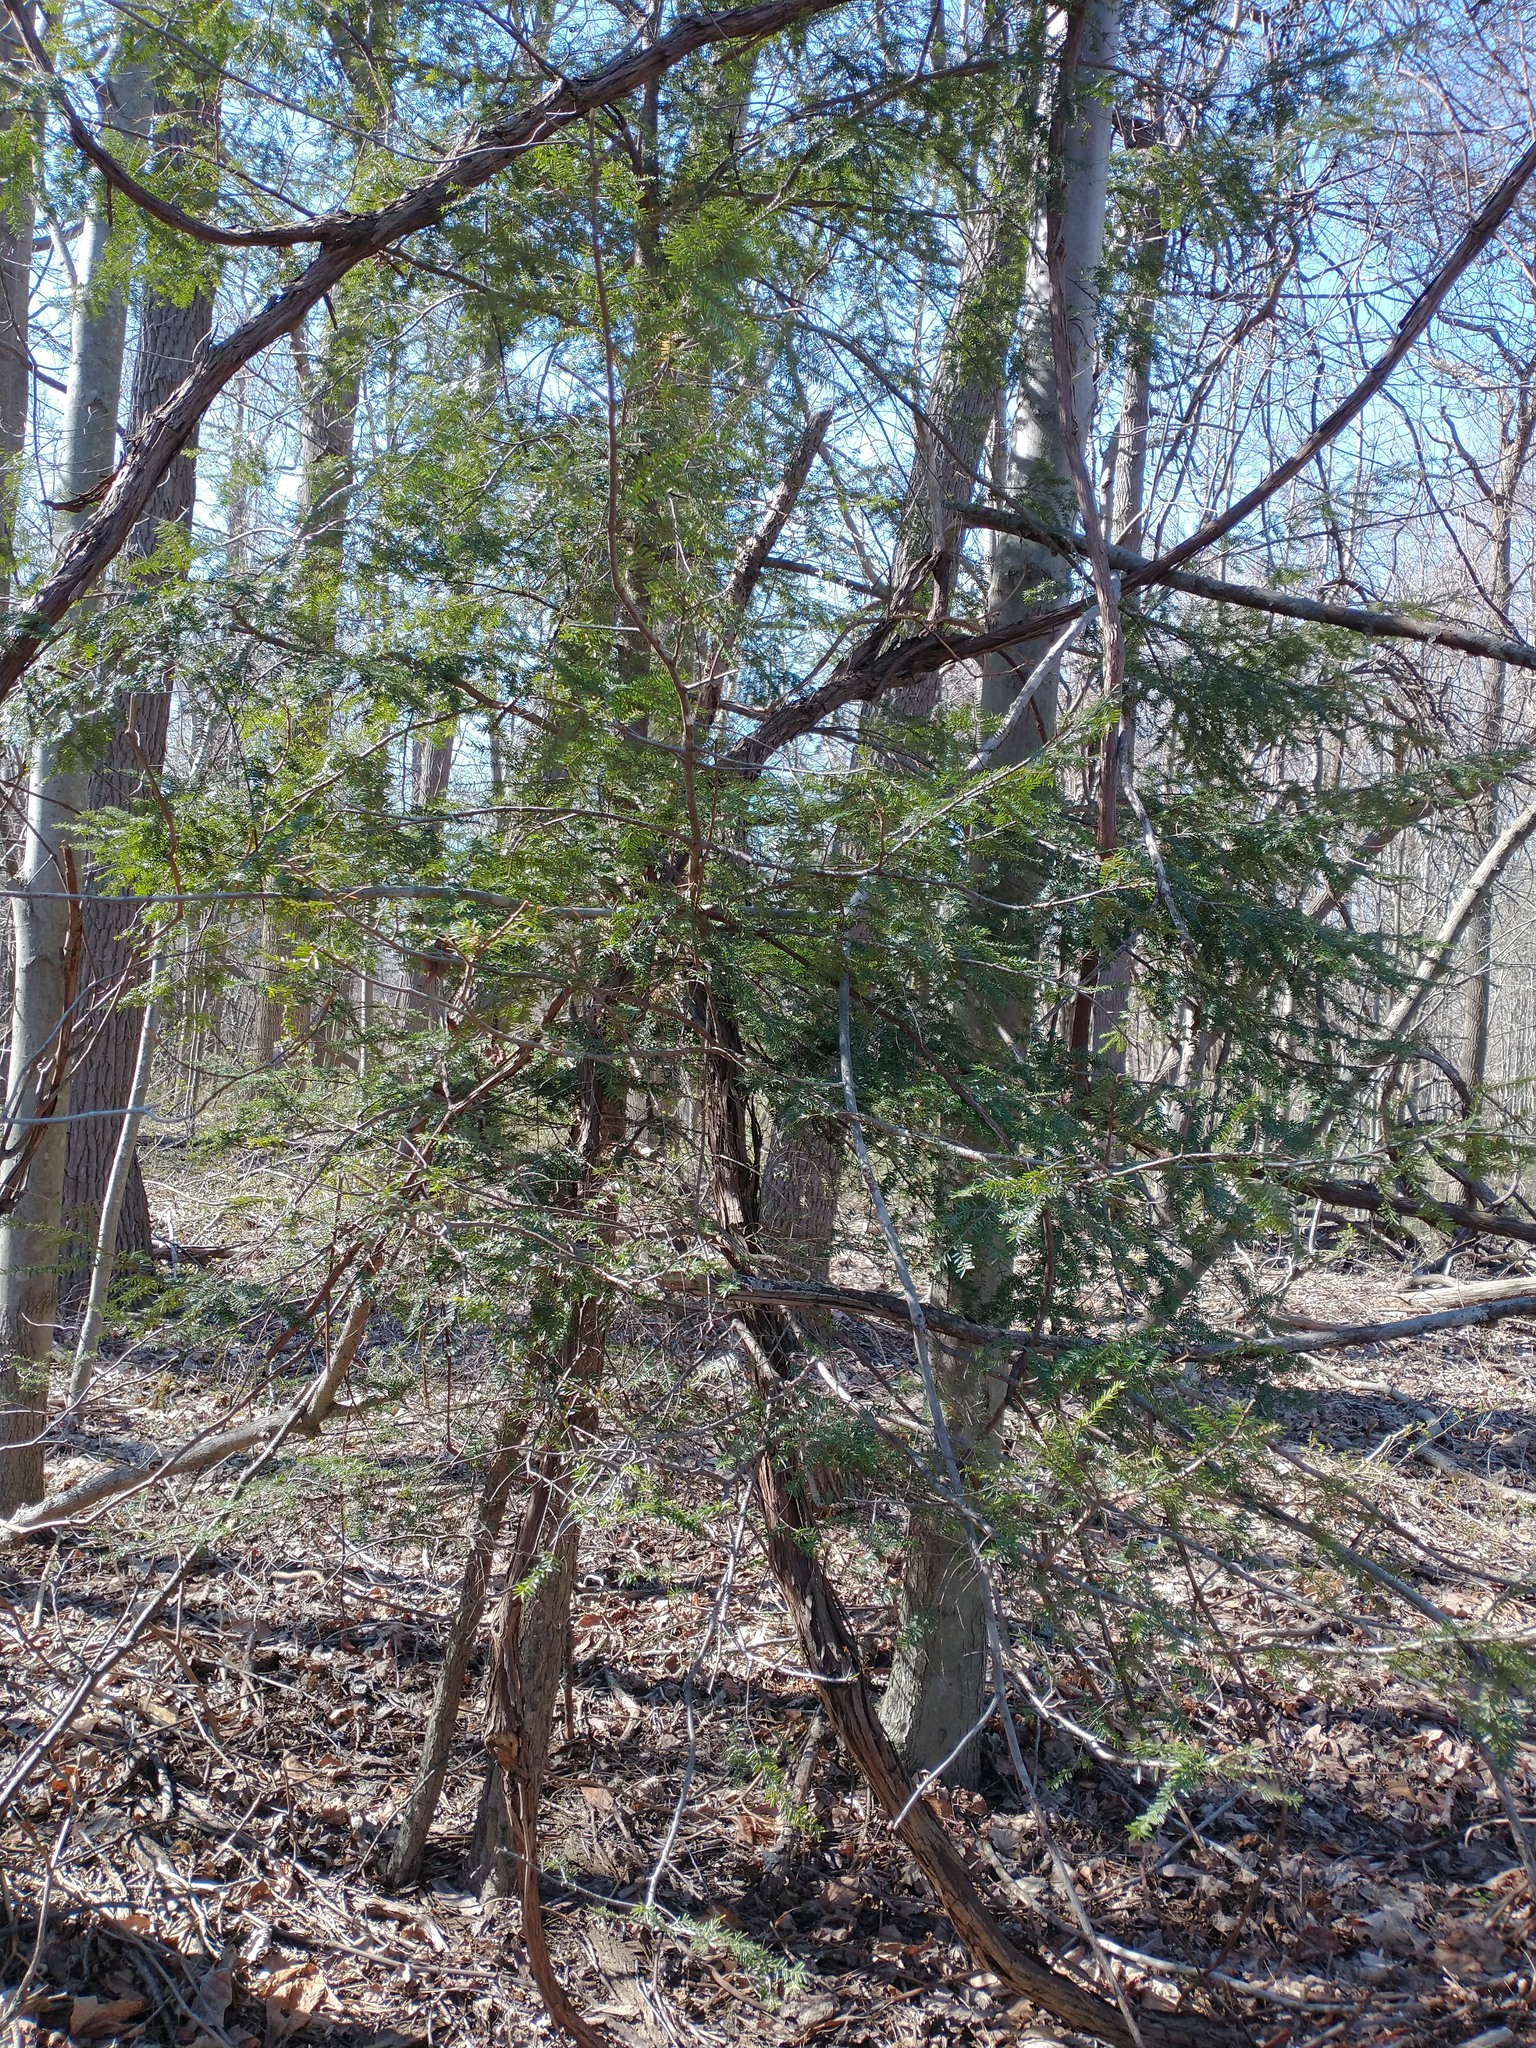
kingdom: Plantae
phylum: Tracheophyta
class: Pinopsida
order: Pinales
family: Pinaceae
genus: Tsuga
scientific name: Tsuga canadensis
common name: Eastern hemlock
